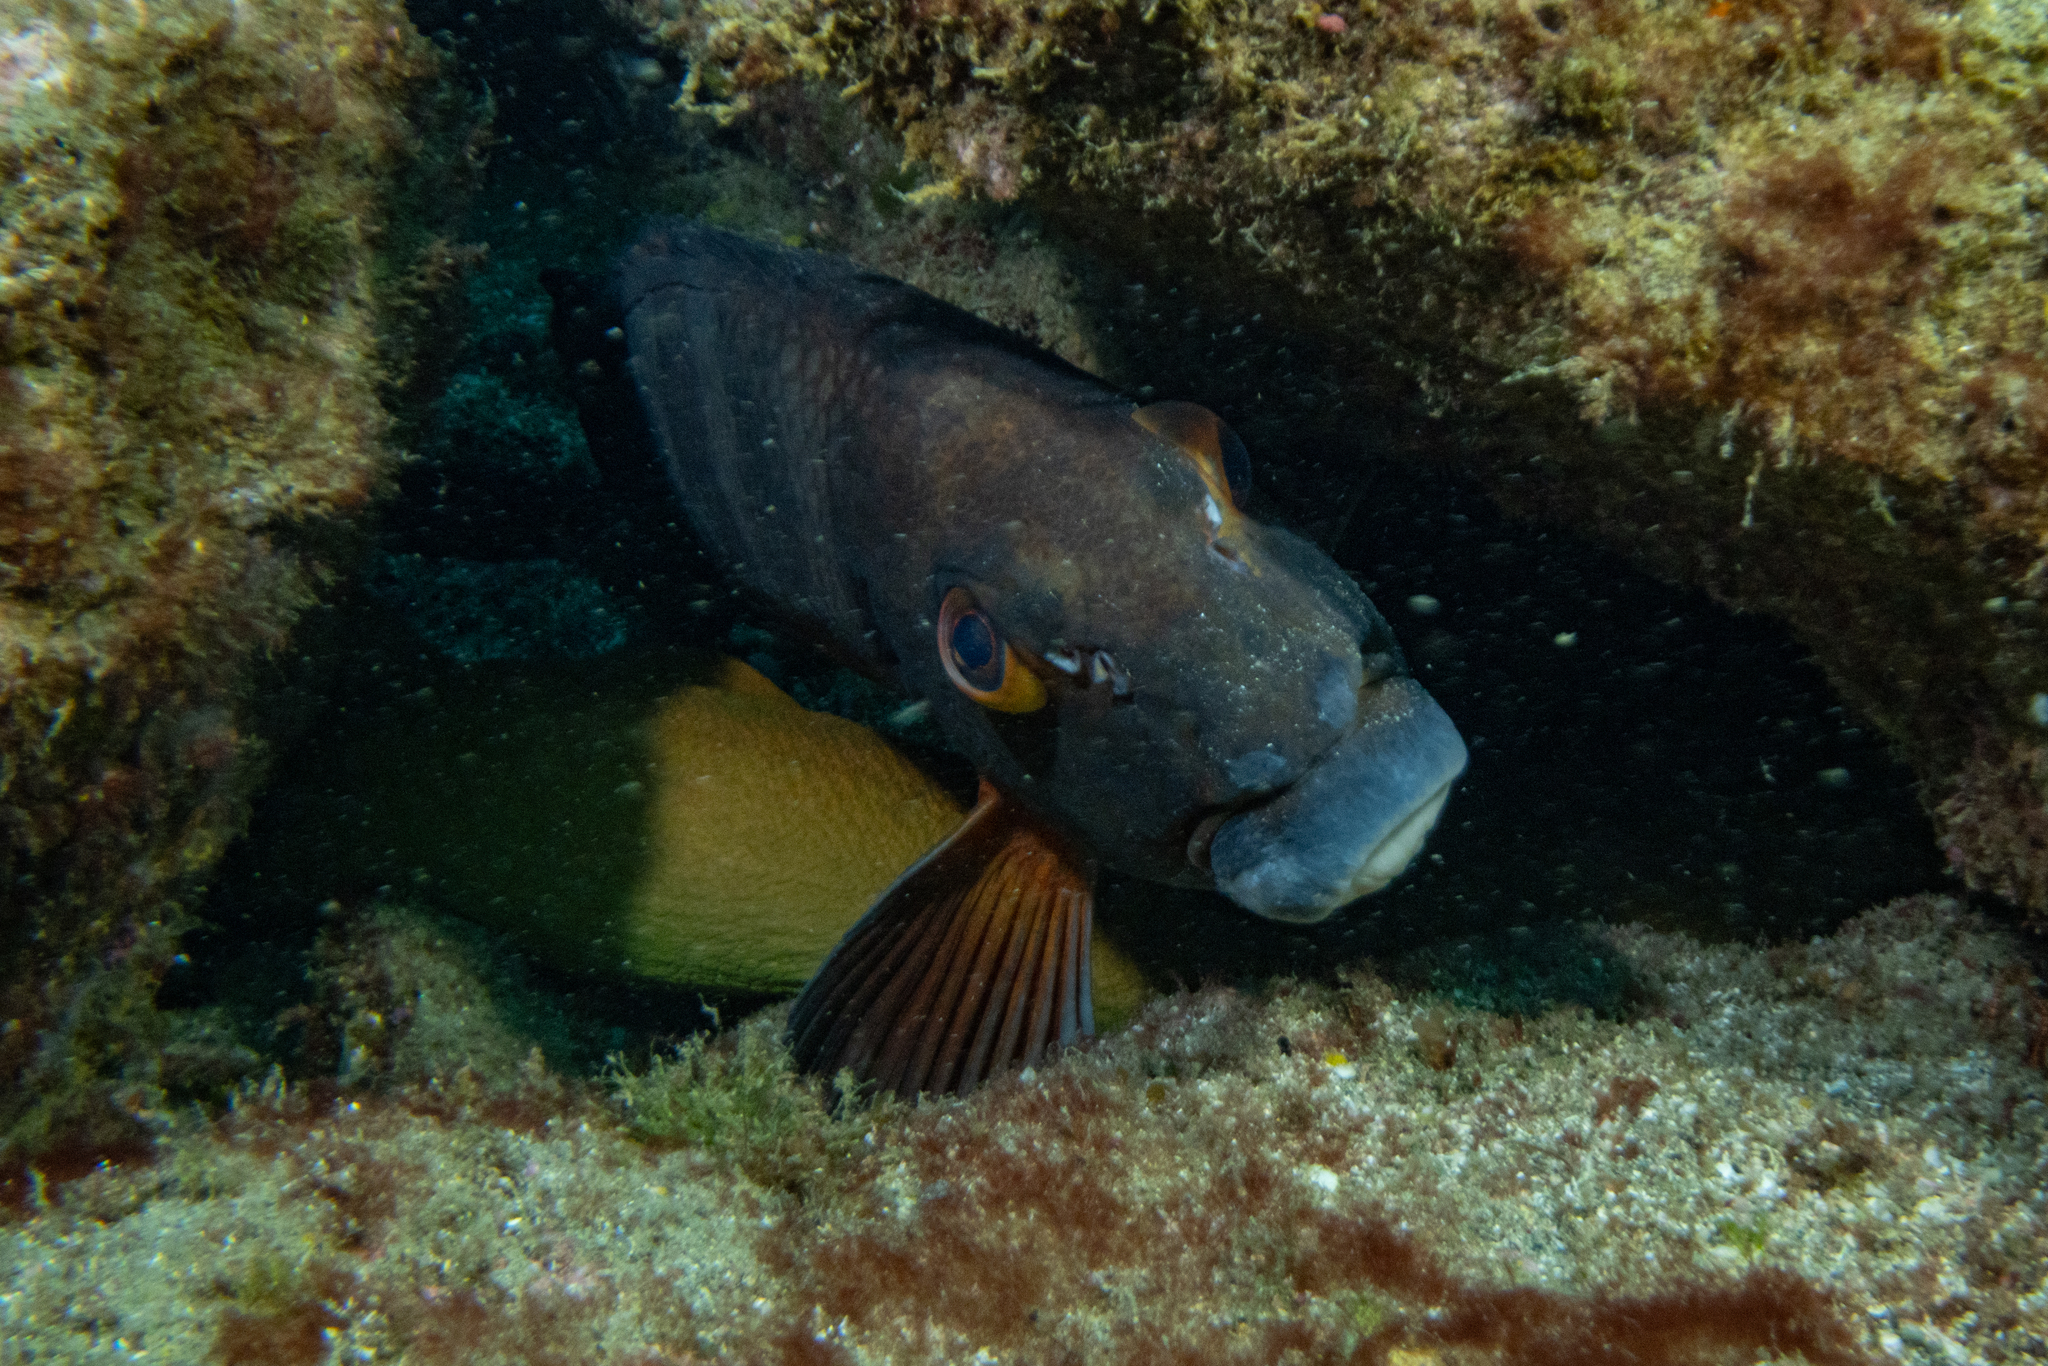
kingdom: Animalia
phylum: Chordata
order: Perciformes
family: Cheilodactylidae
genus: Cheilodactylus
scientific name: Cheilodactylus spectabilis
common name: Red moki
